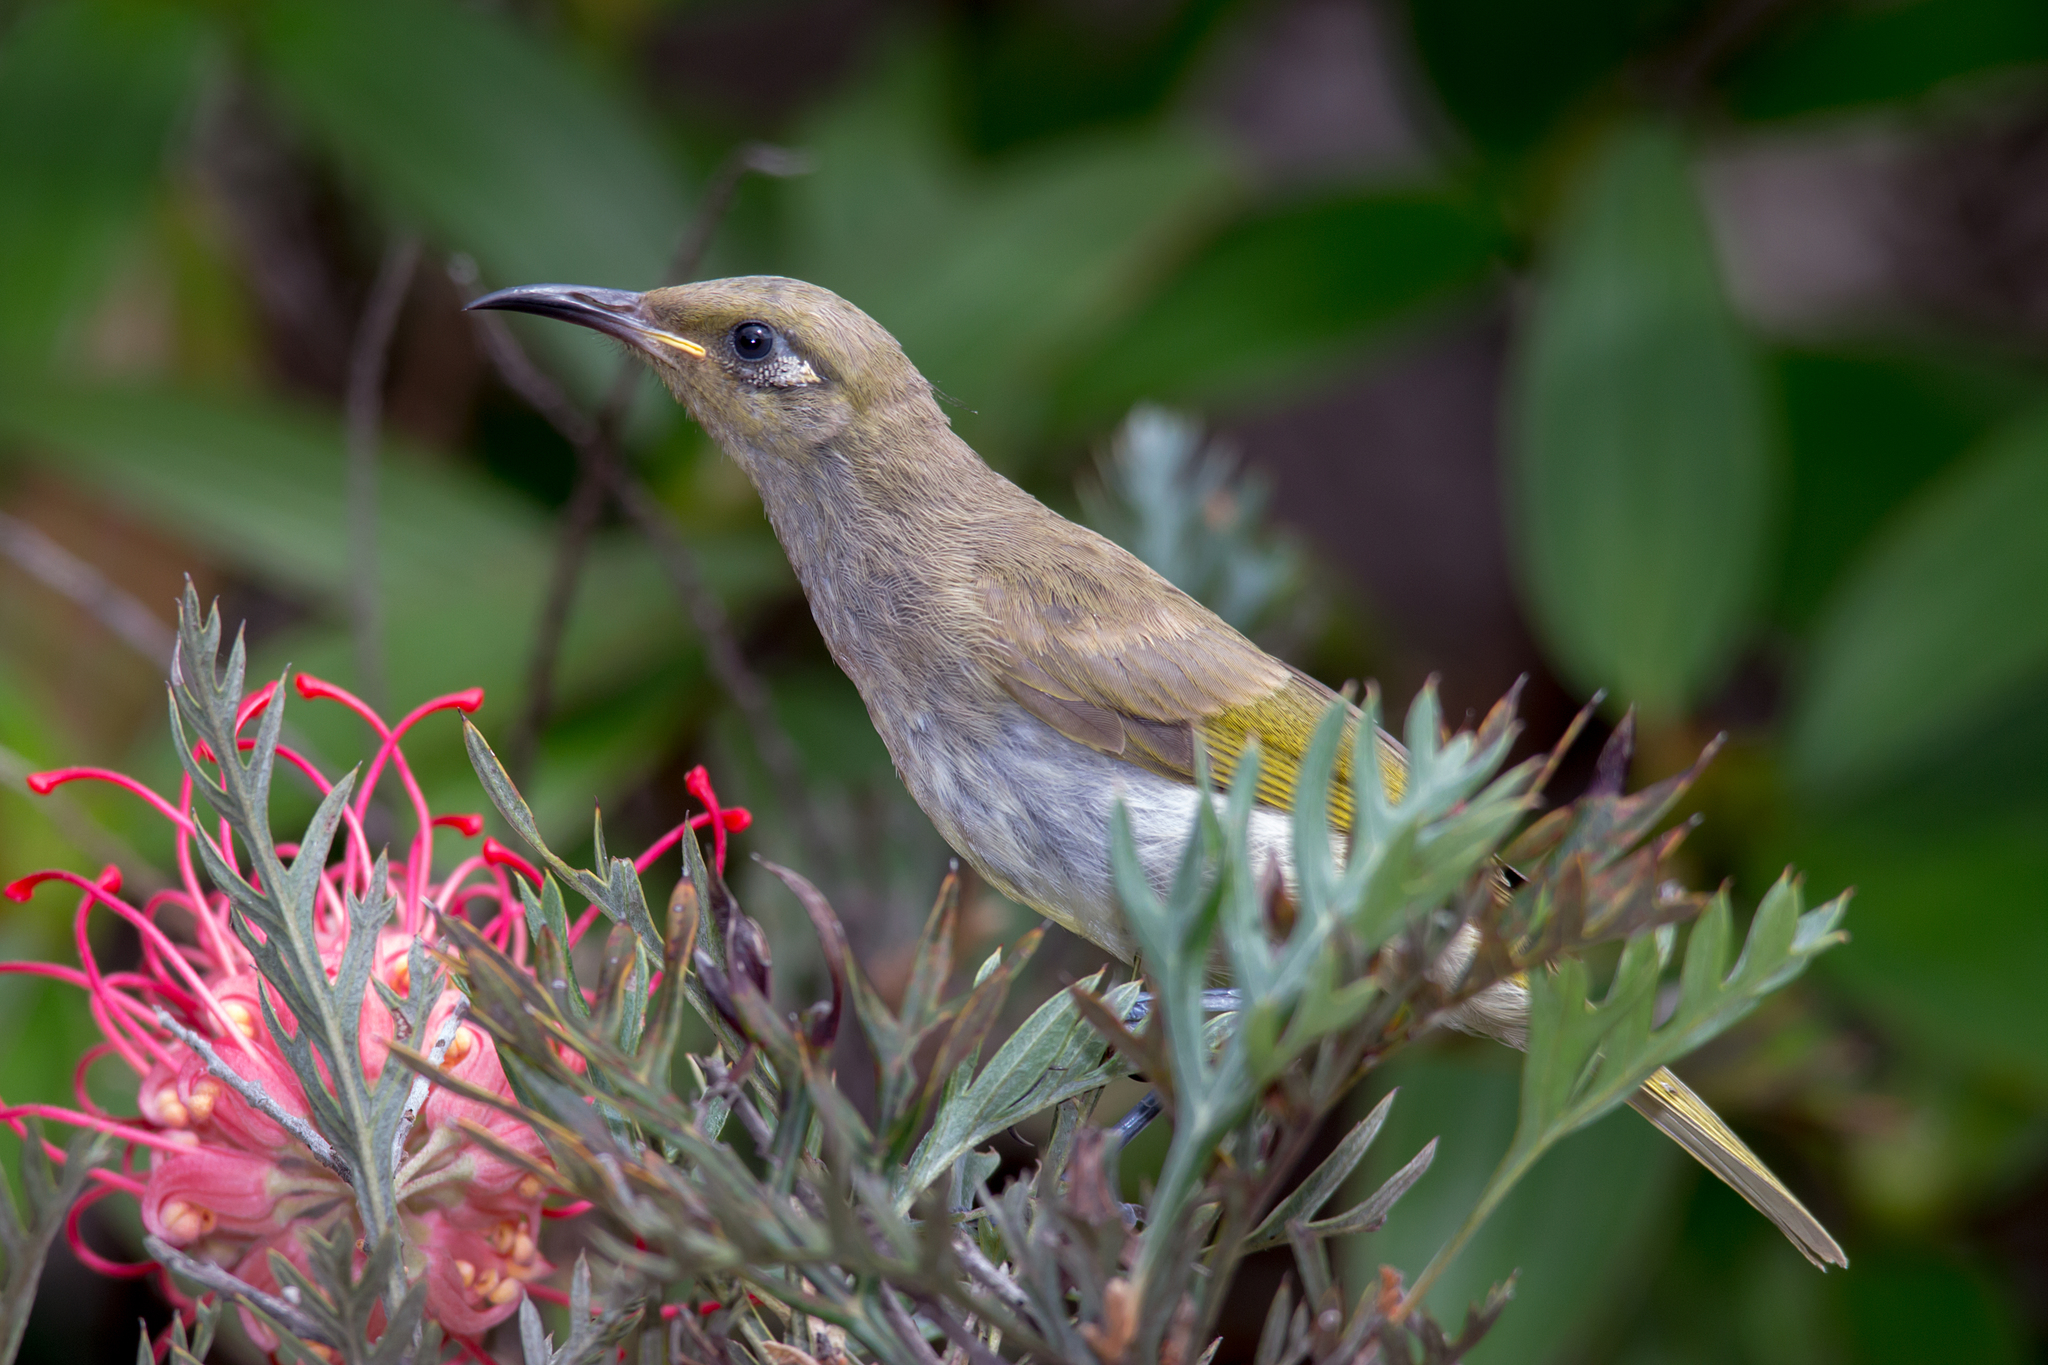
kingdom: Animalia
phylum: Chordata
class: Aves
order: Passeriformes
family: Meliphagidae
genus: Lichmera
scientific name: Lichmera indistincta
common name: Brown honeyeater
